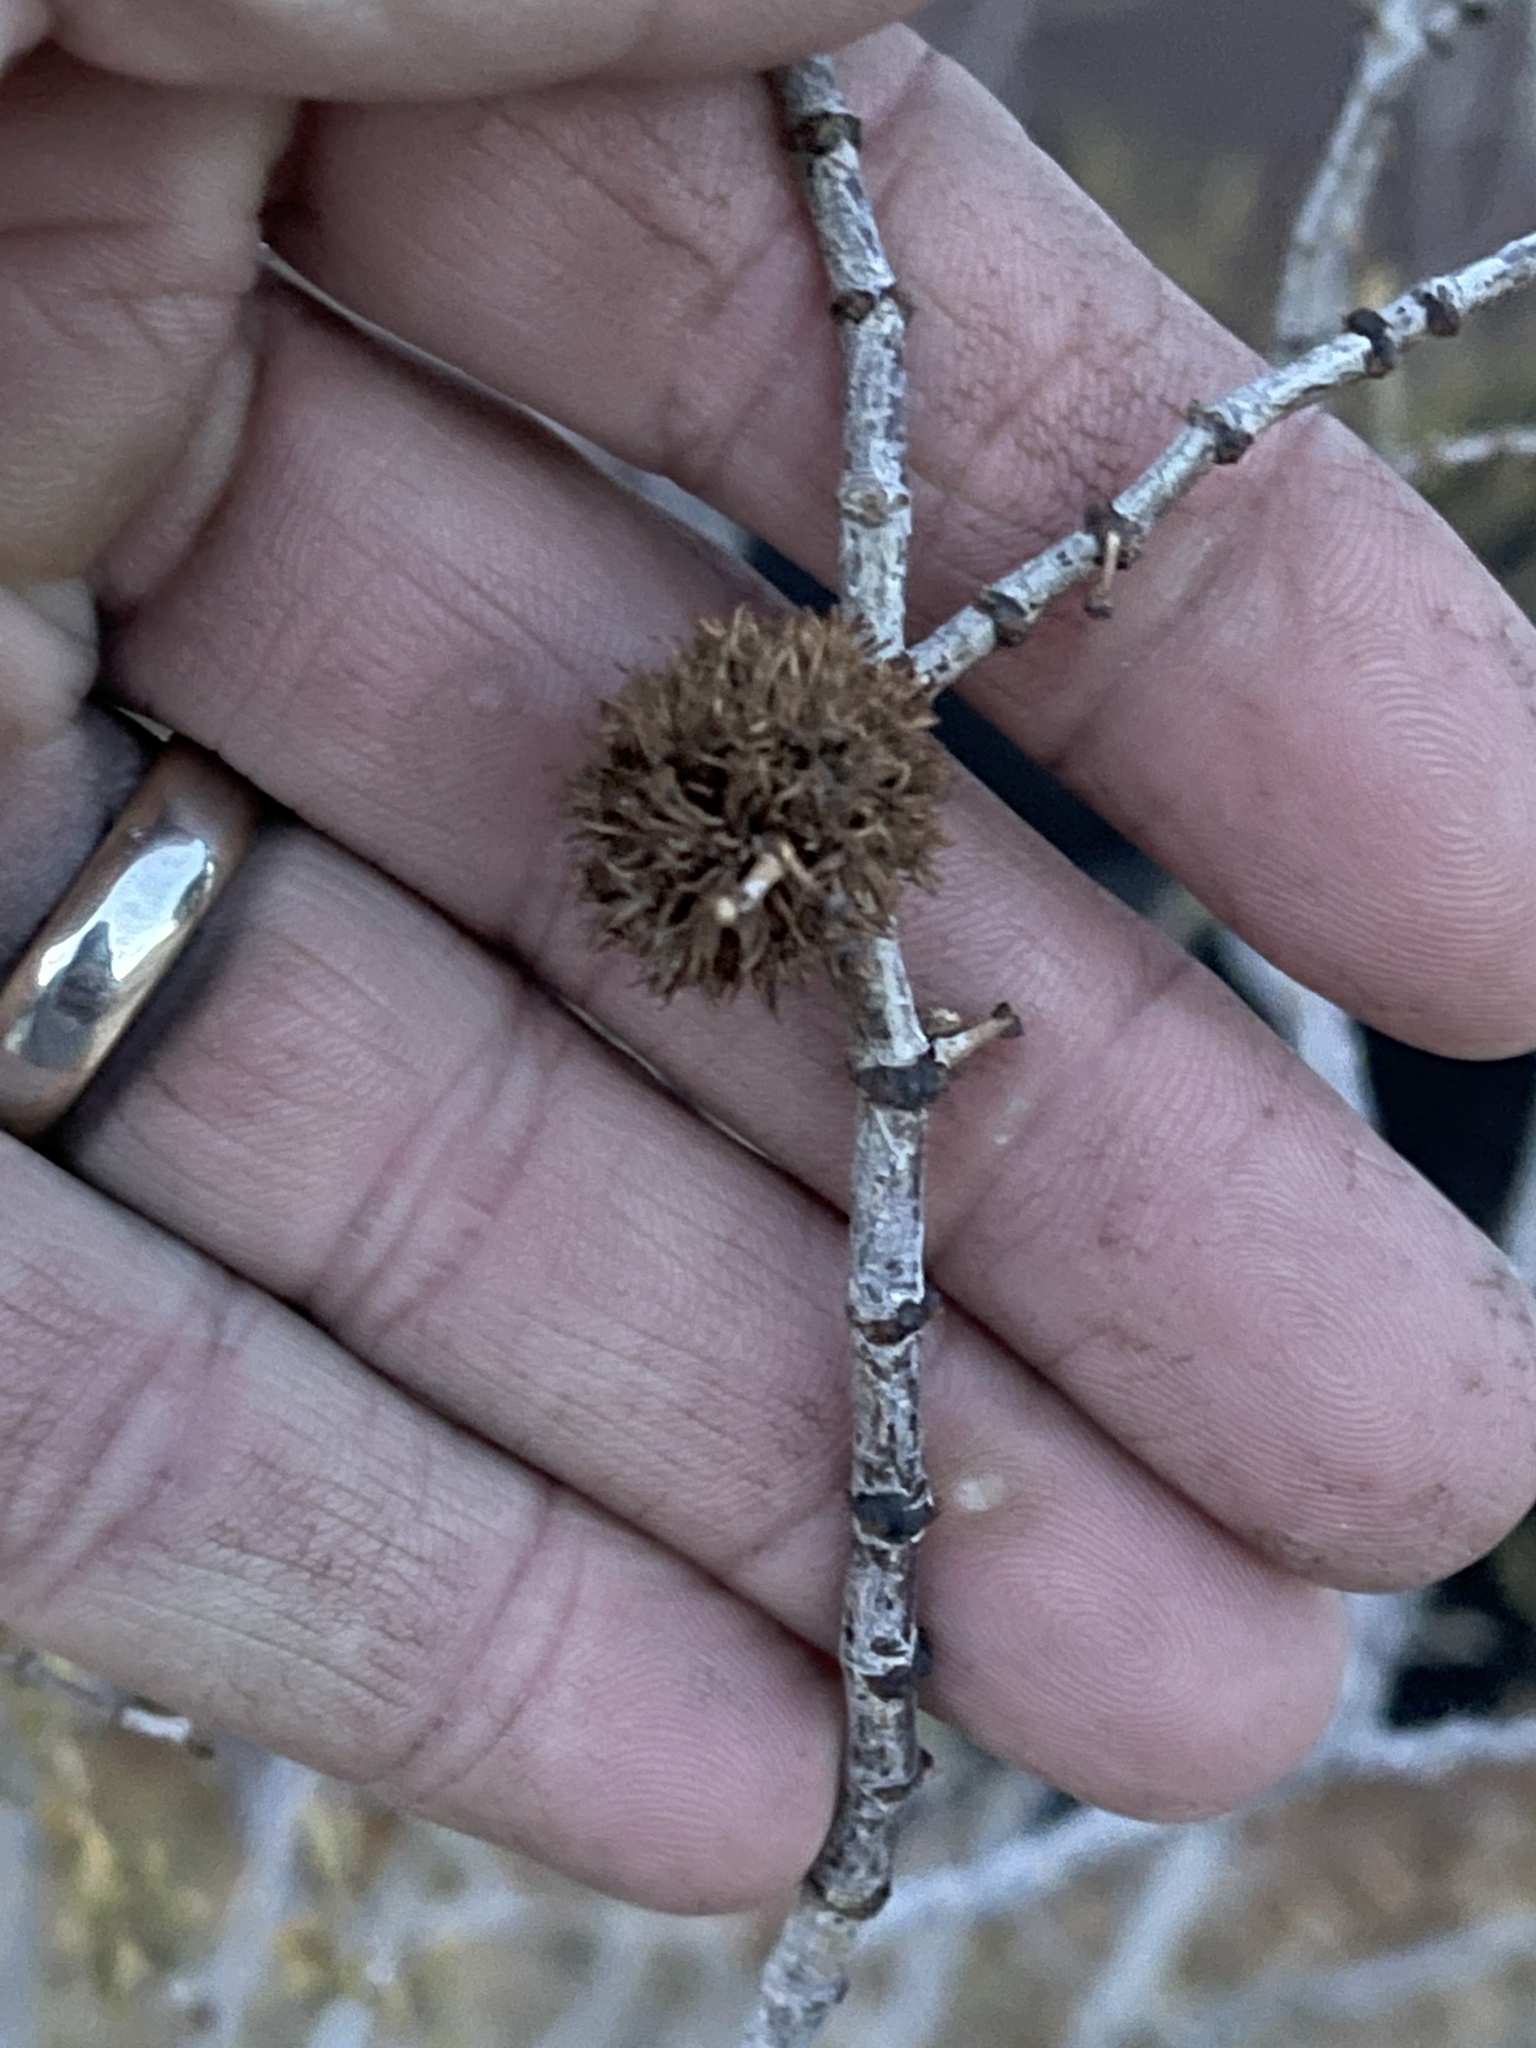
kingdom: Animalia
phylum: Arthropoda
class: Insecta
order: Diptera
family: Cecidomyiidae
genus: Asphondylia
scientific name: Asphondylia auripila
